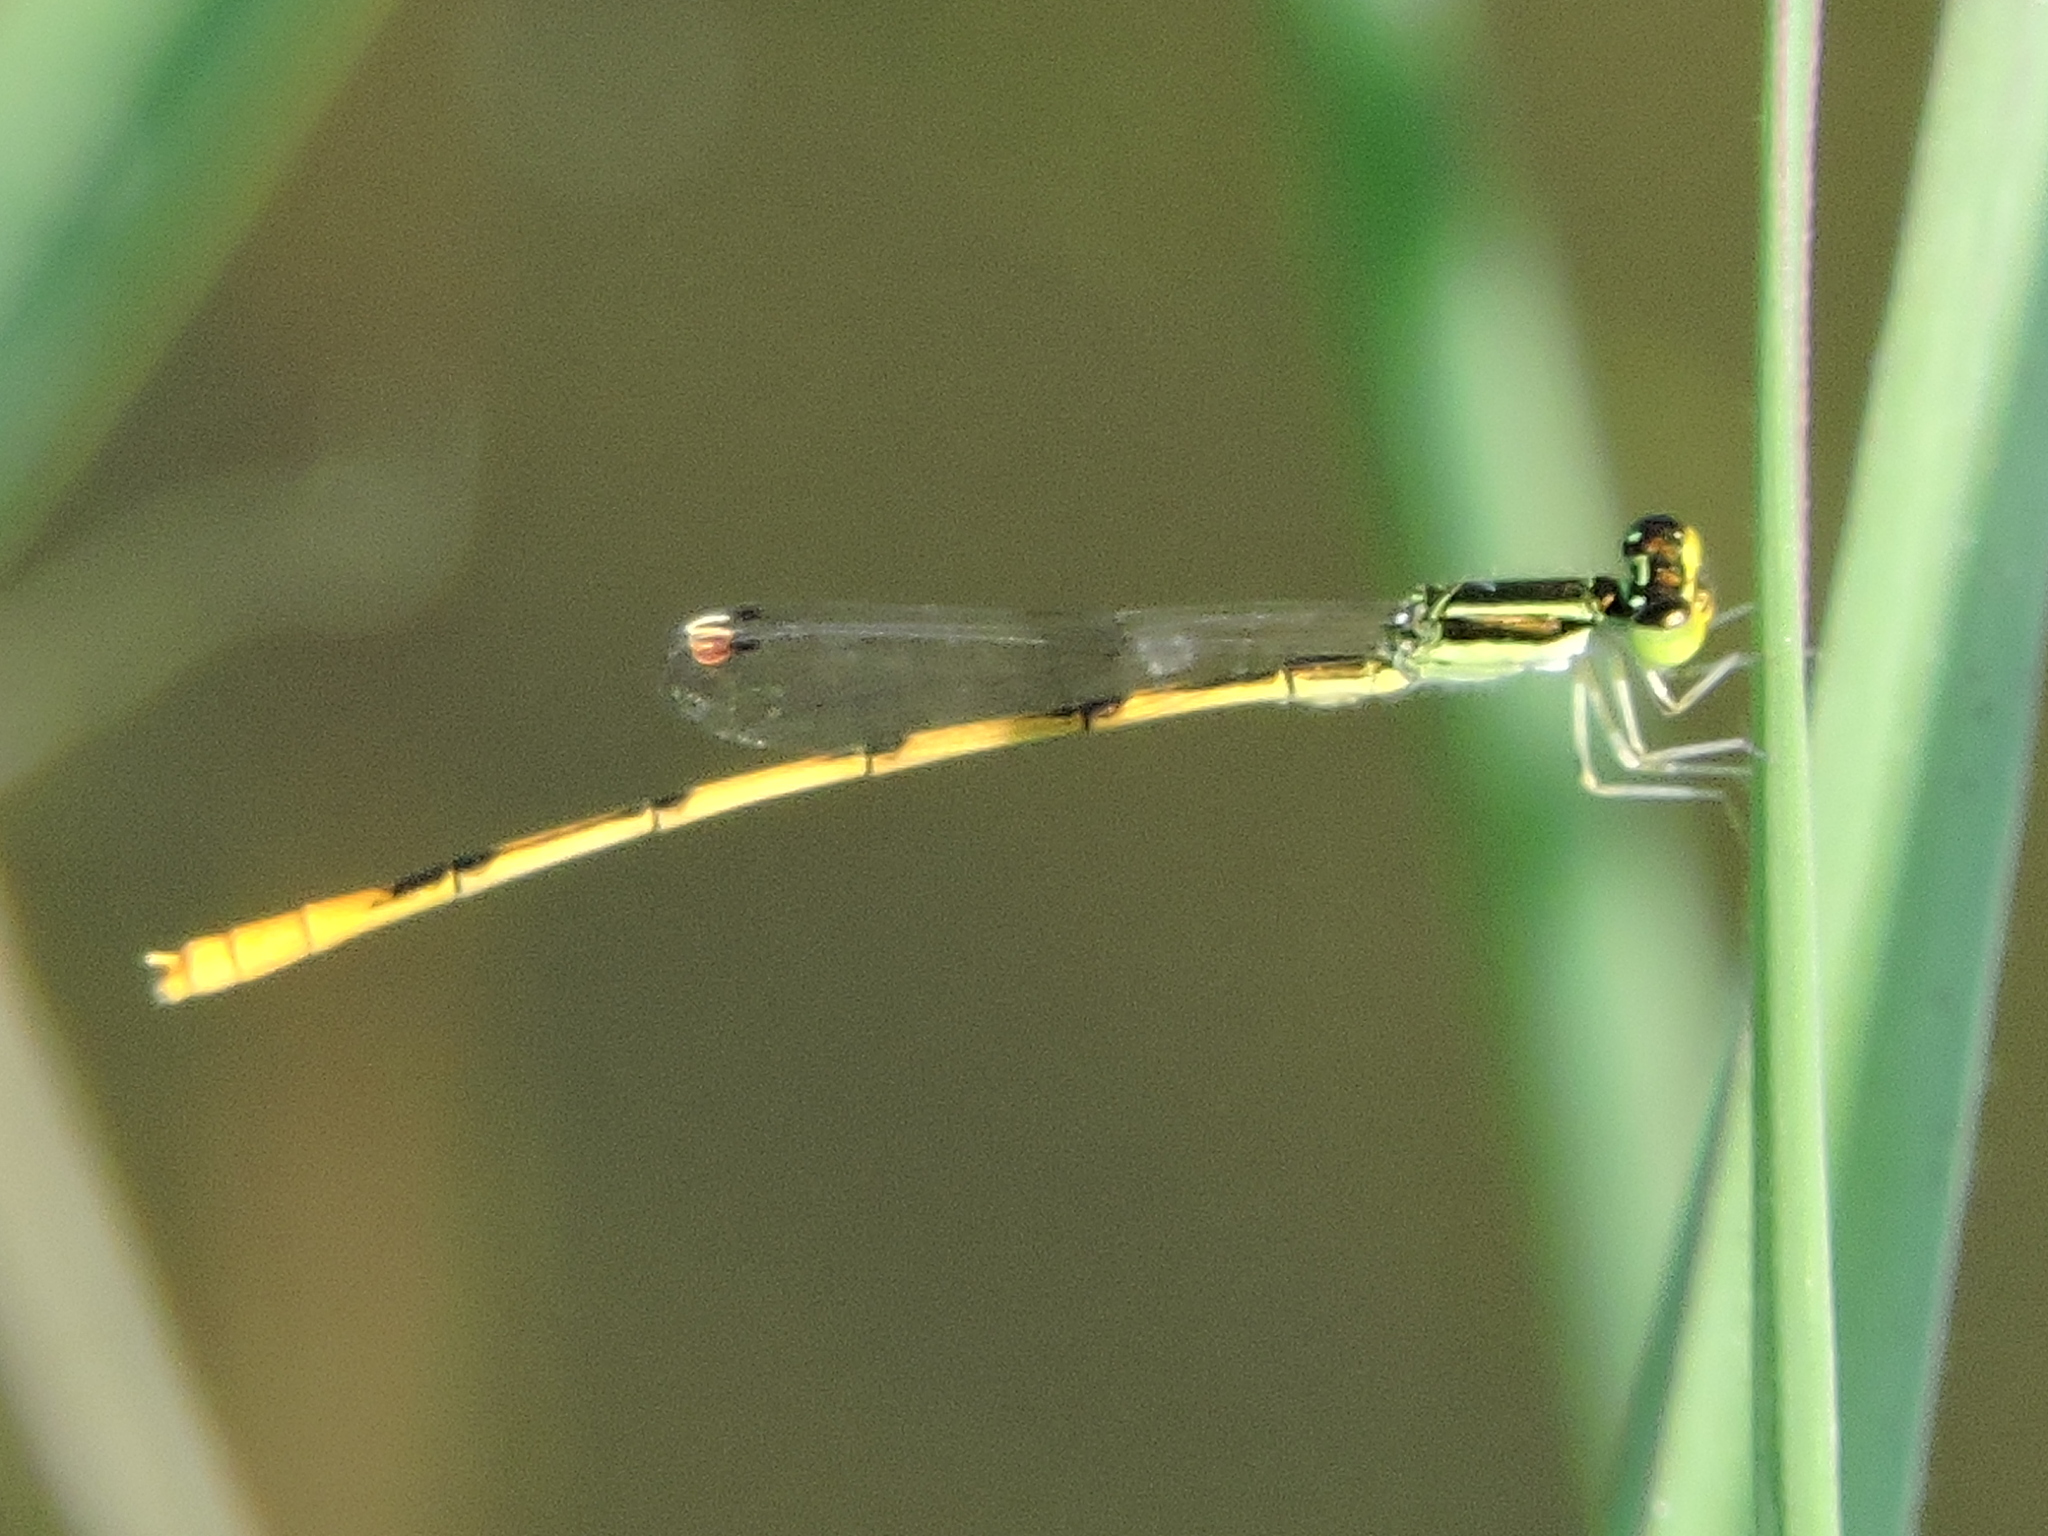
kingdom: Animalia
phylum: Arthropoda
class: Insecta
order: Odonata
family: Coenagrionidae
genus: Ischnura
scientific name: Ischnura hastata
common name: Citrine forktail
